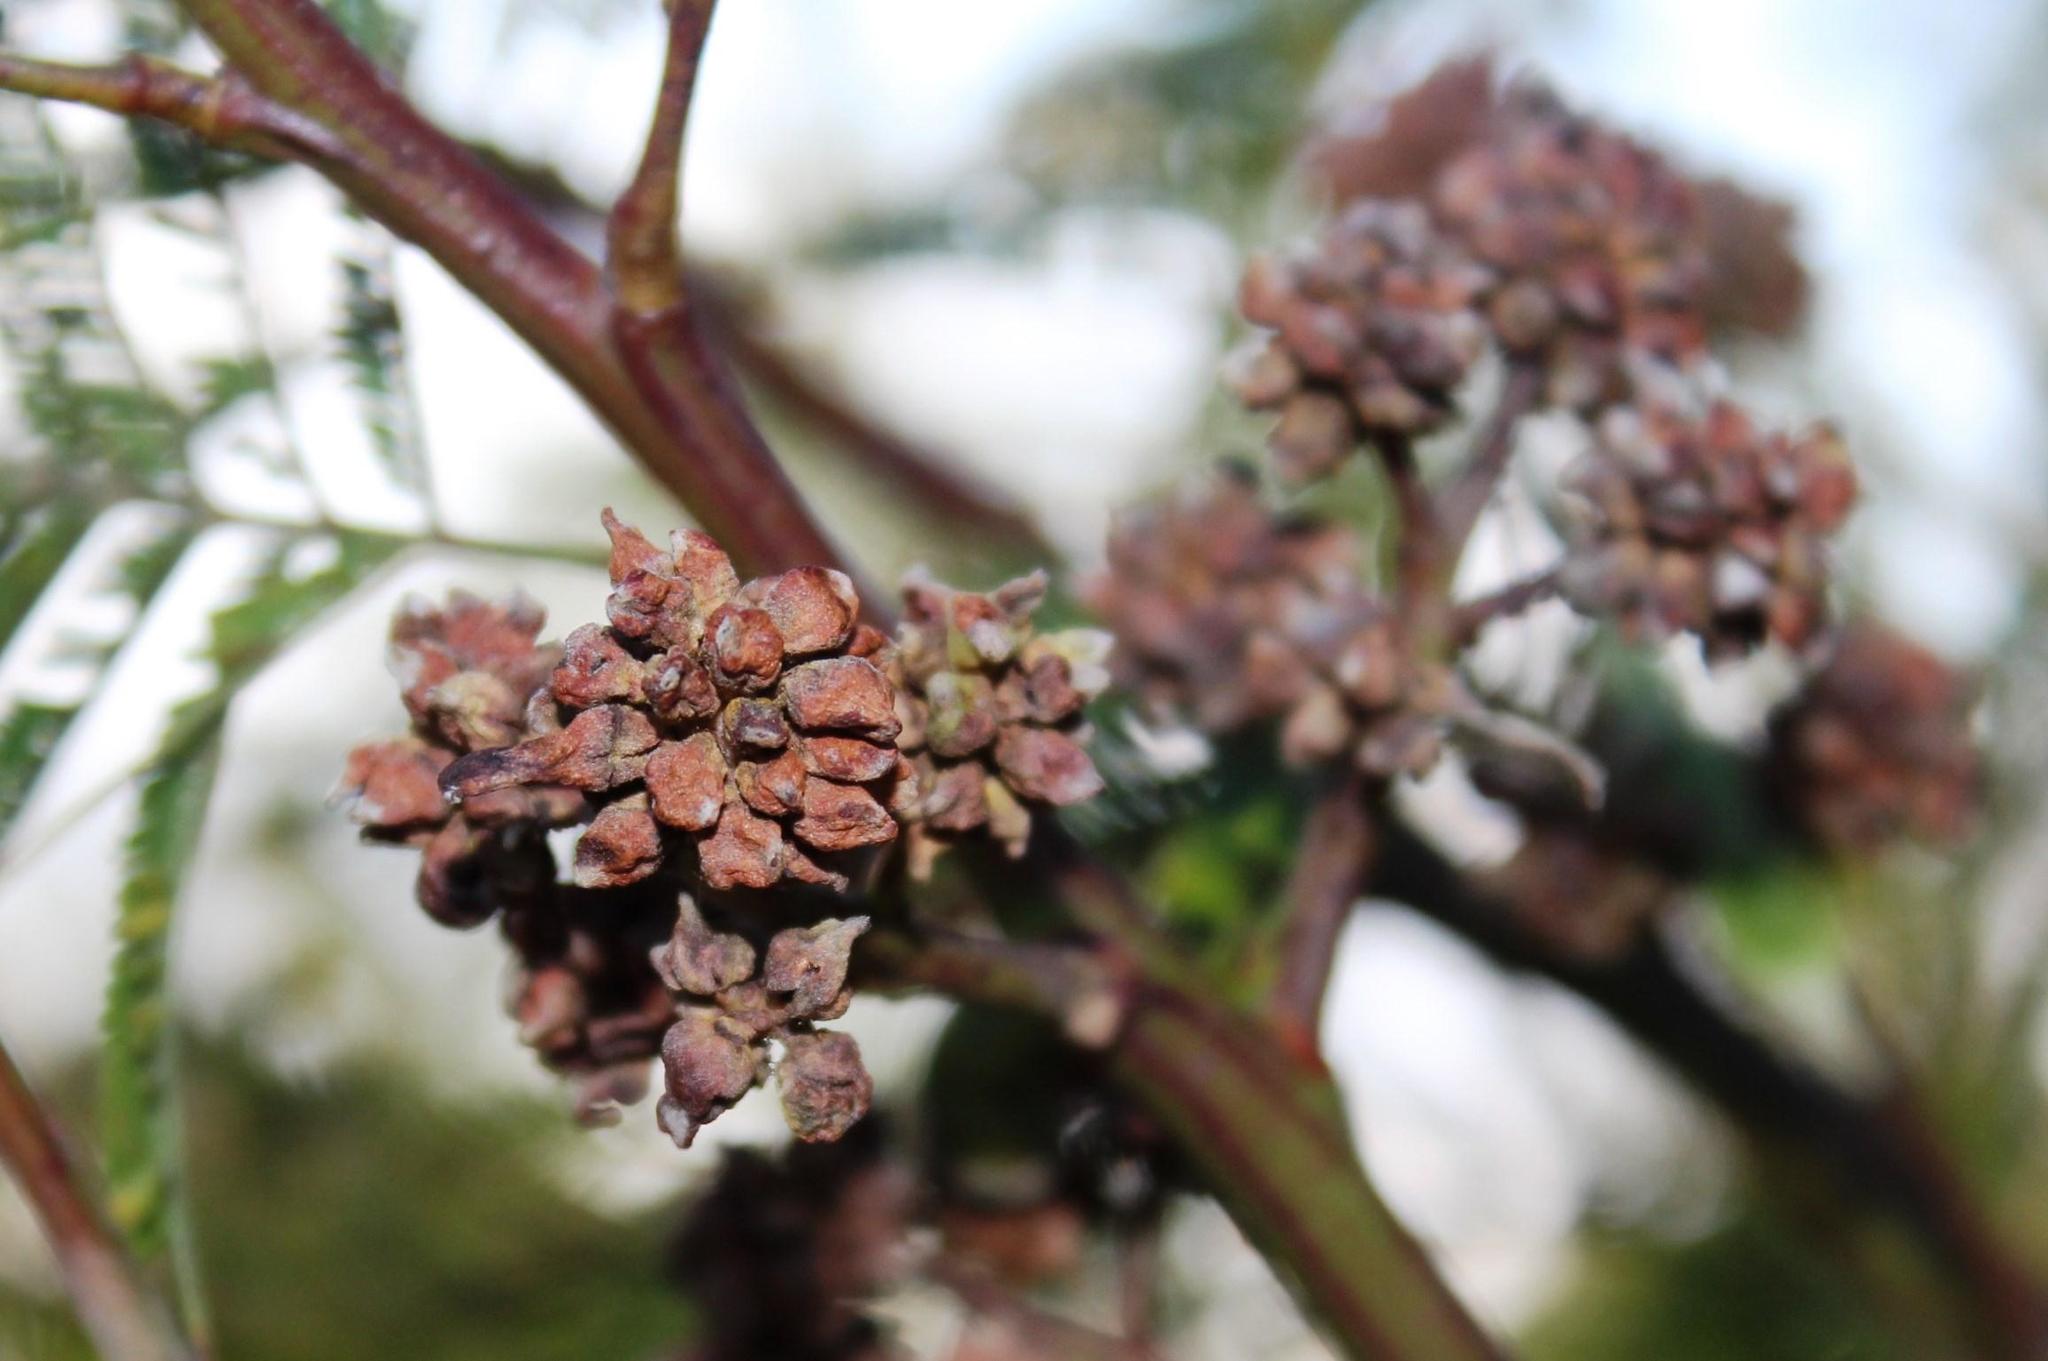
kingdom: Animalia
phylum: Arthropoda
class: Insecta
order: Diptera
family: Cecidomyiidae
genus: Dasineura
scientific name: Dasineura rubiformis
